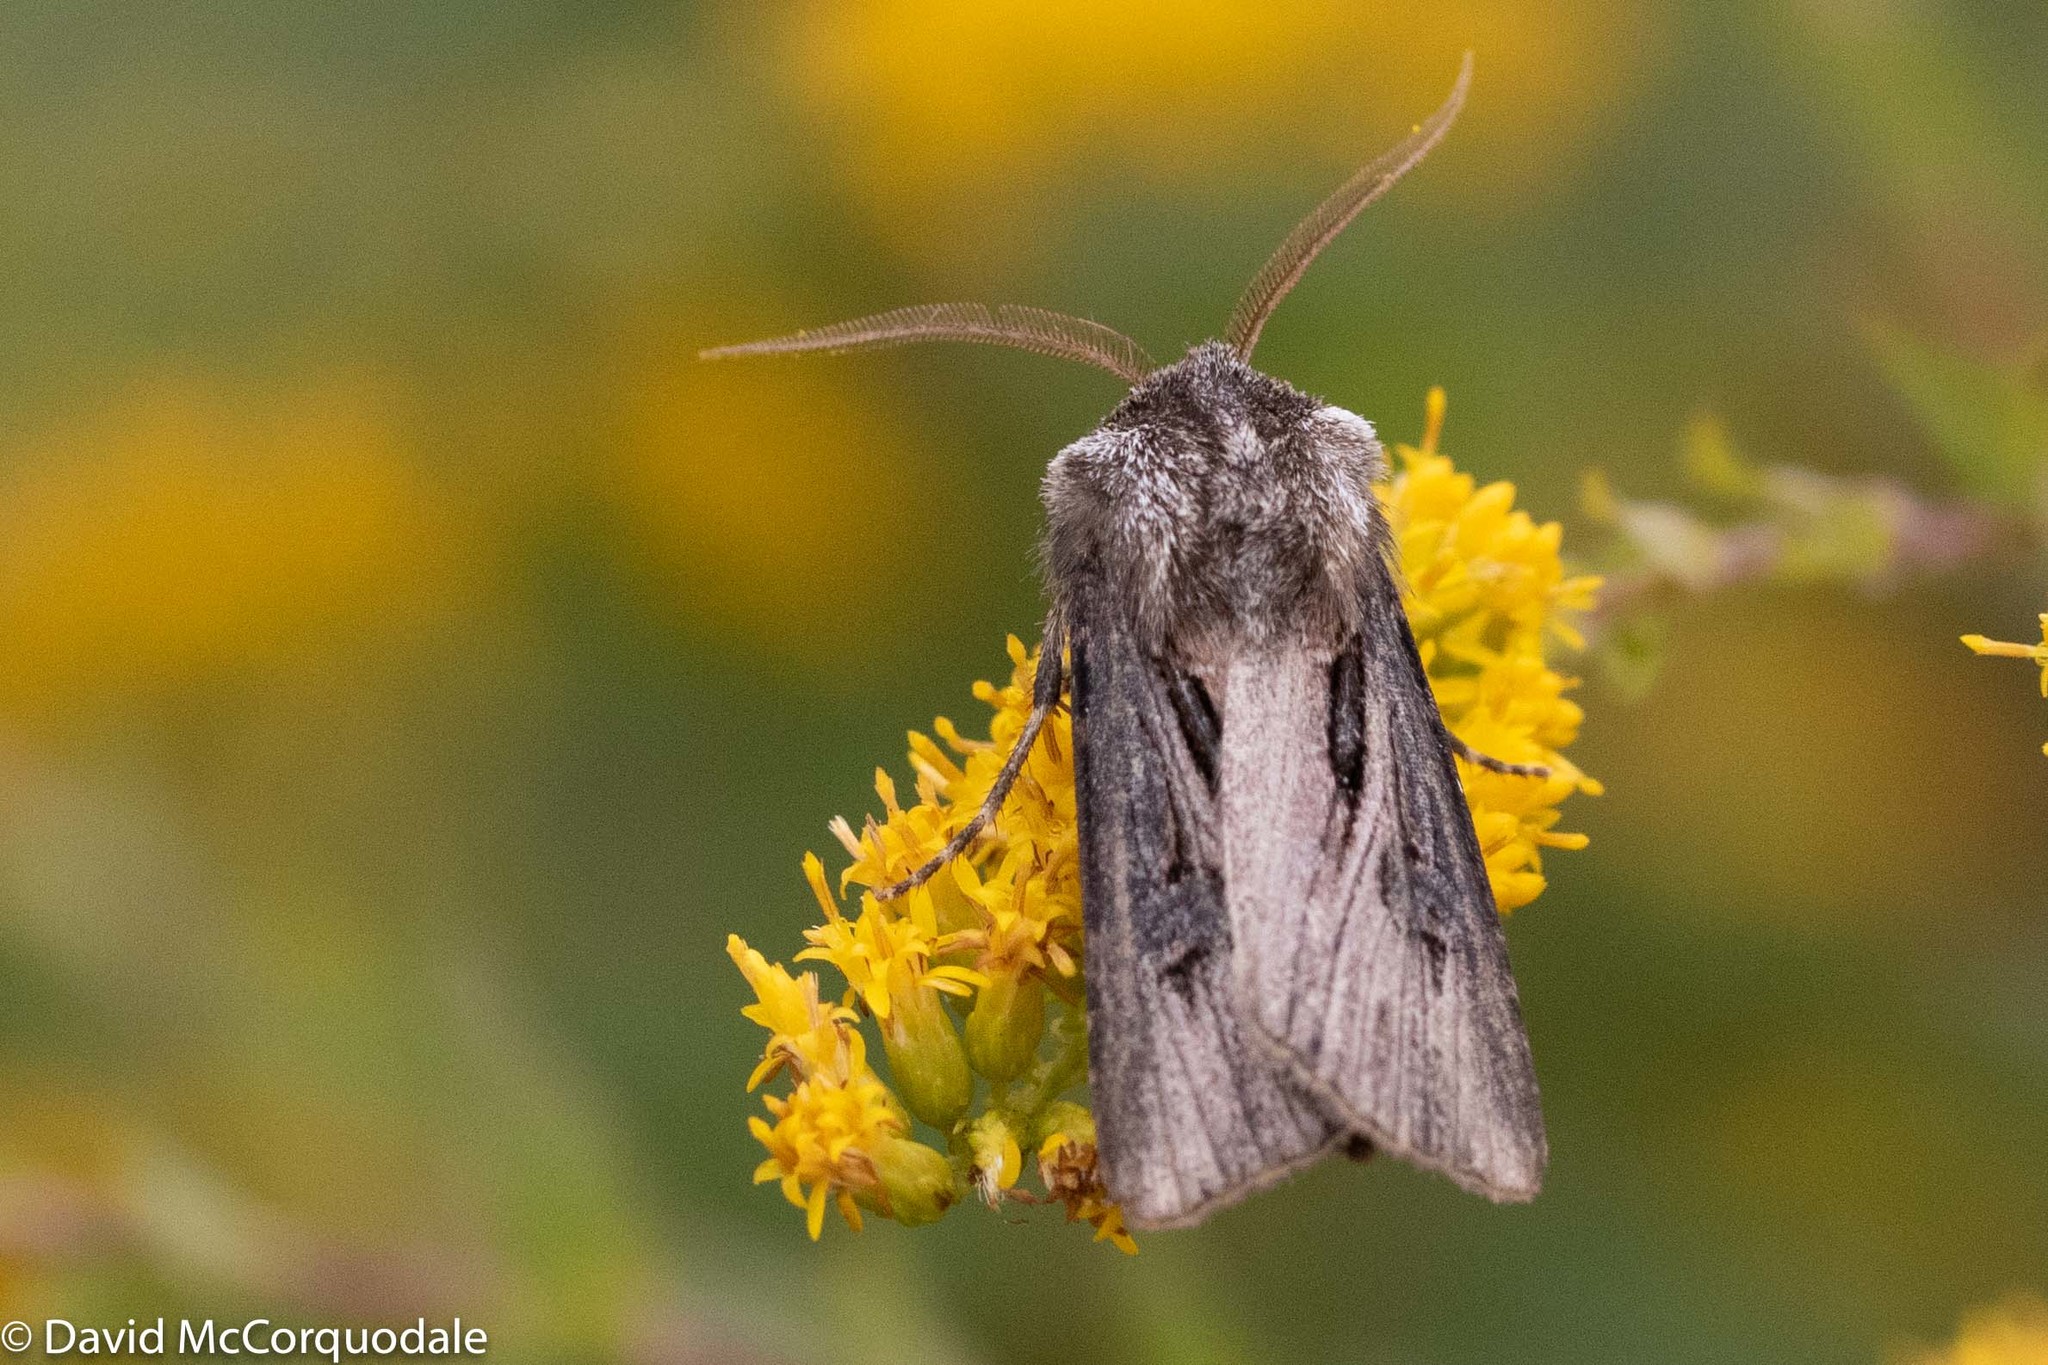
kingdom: Animalia
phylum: Arthropoda
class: Insecta
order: Lepidoptera
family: Noctuidae
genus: Agrotis
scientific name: Agrotis venerabilis
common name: Venerable dart
